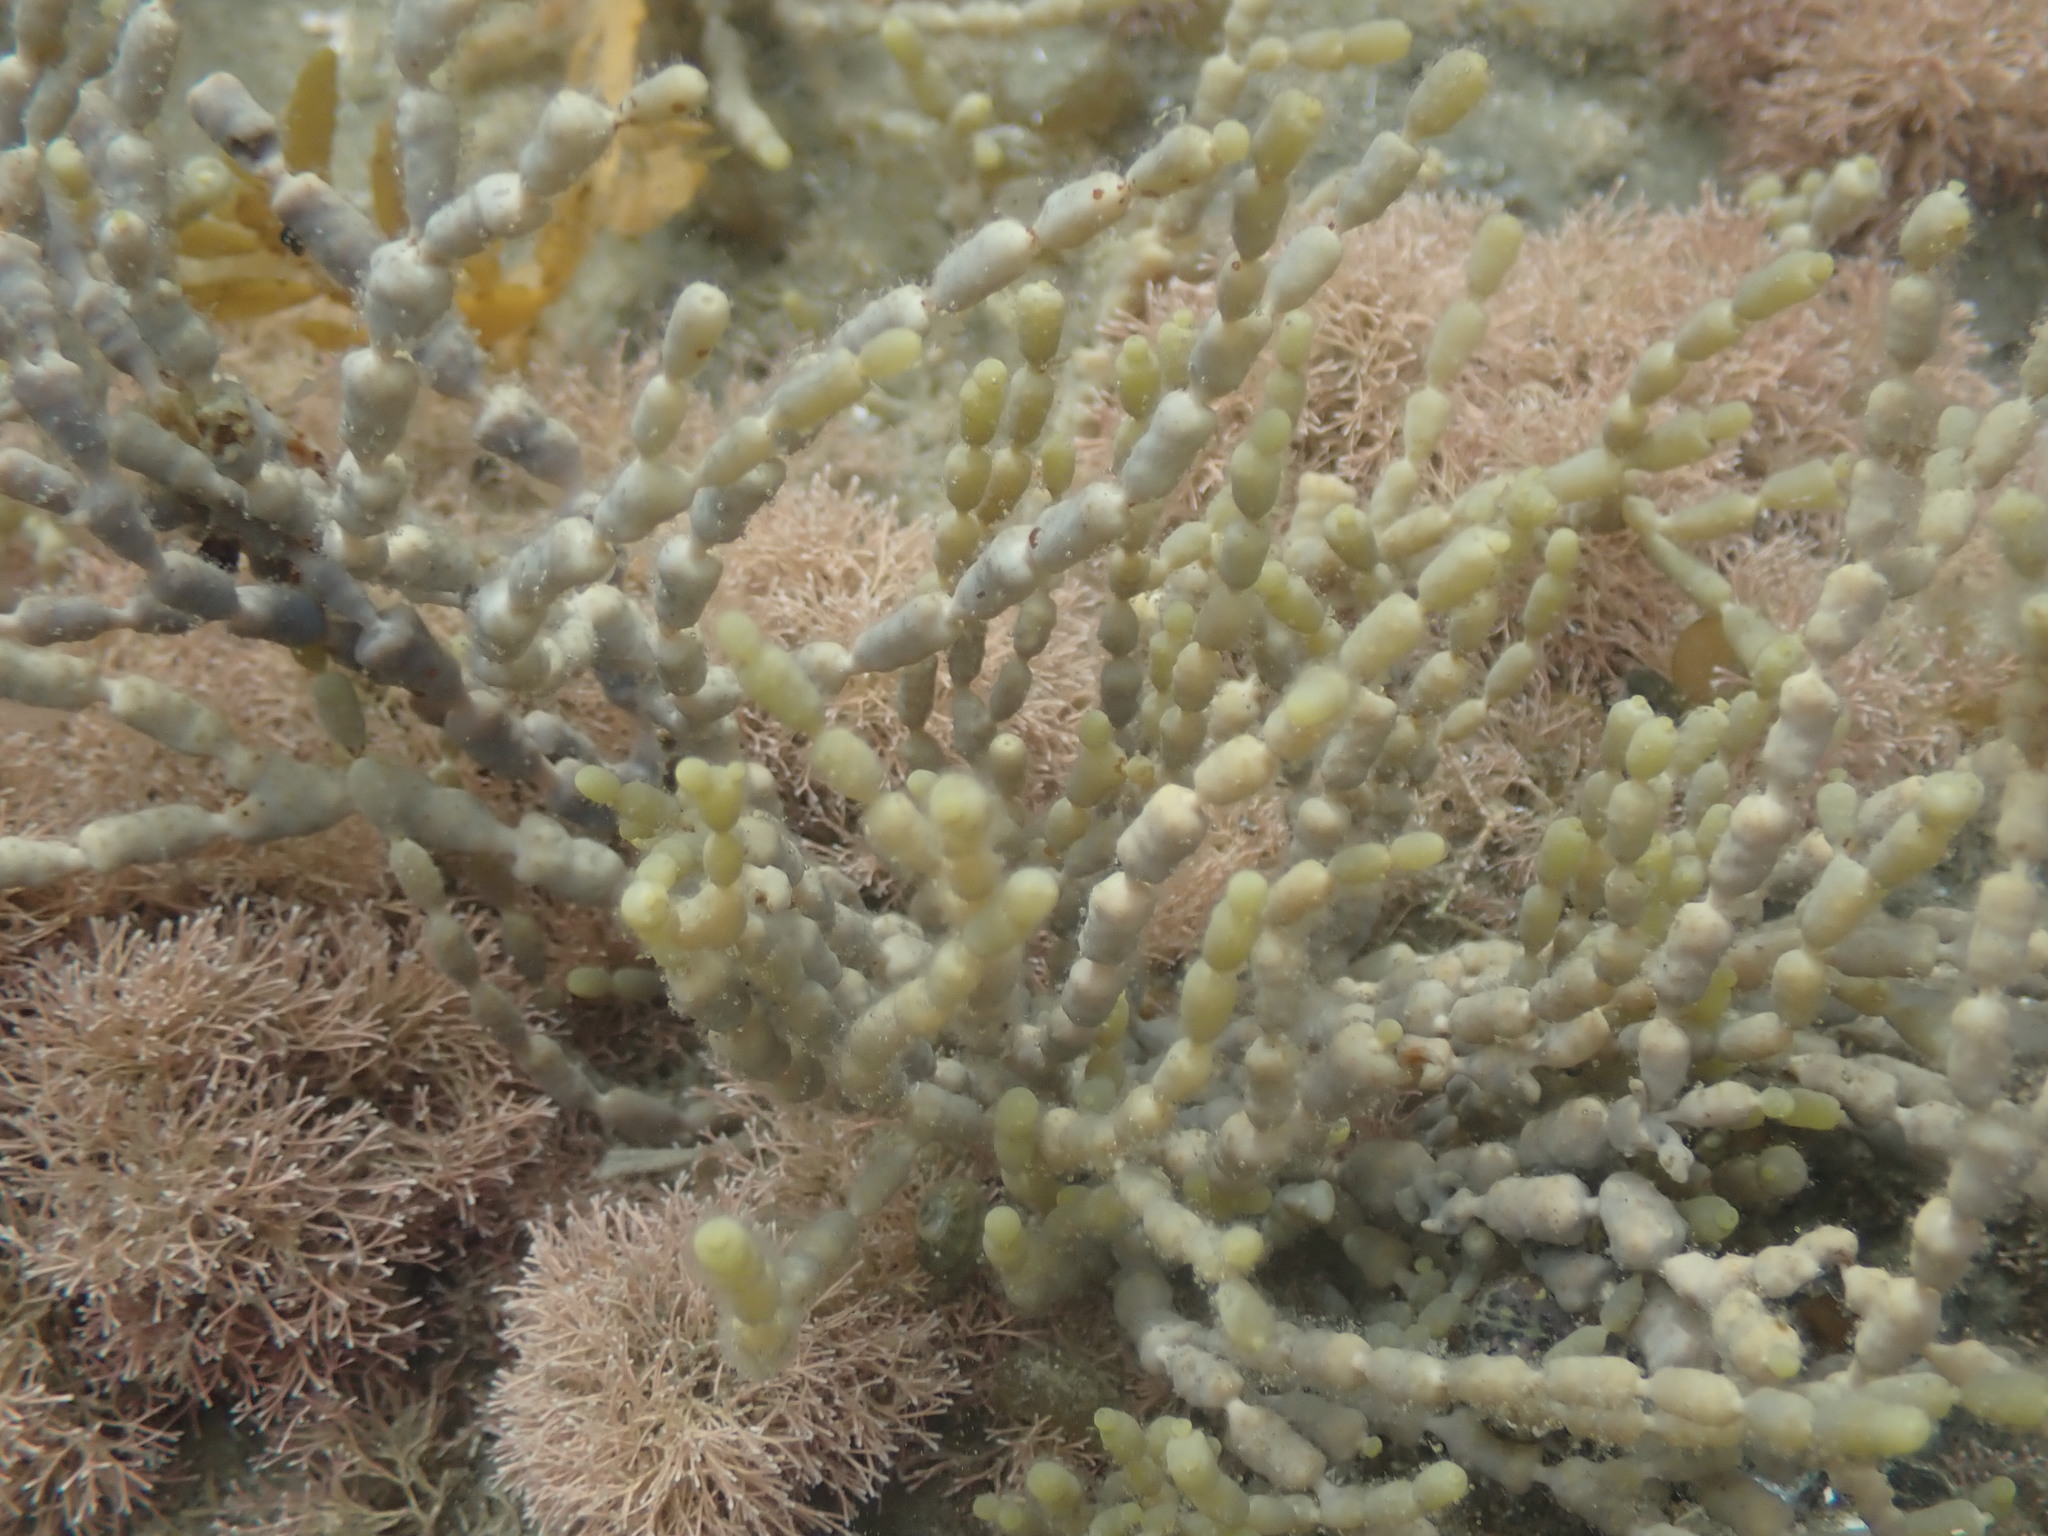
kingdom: Chromista
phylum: Ochrophyta
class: Phaeophyceae
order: Fucales
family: Hormosiraceae
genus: Hormosira
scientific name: Hormosira banksii
